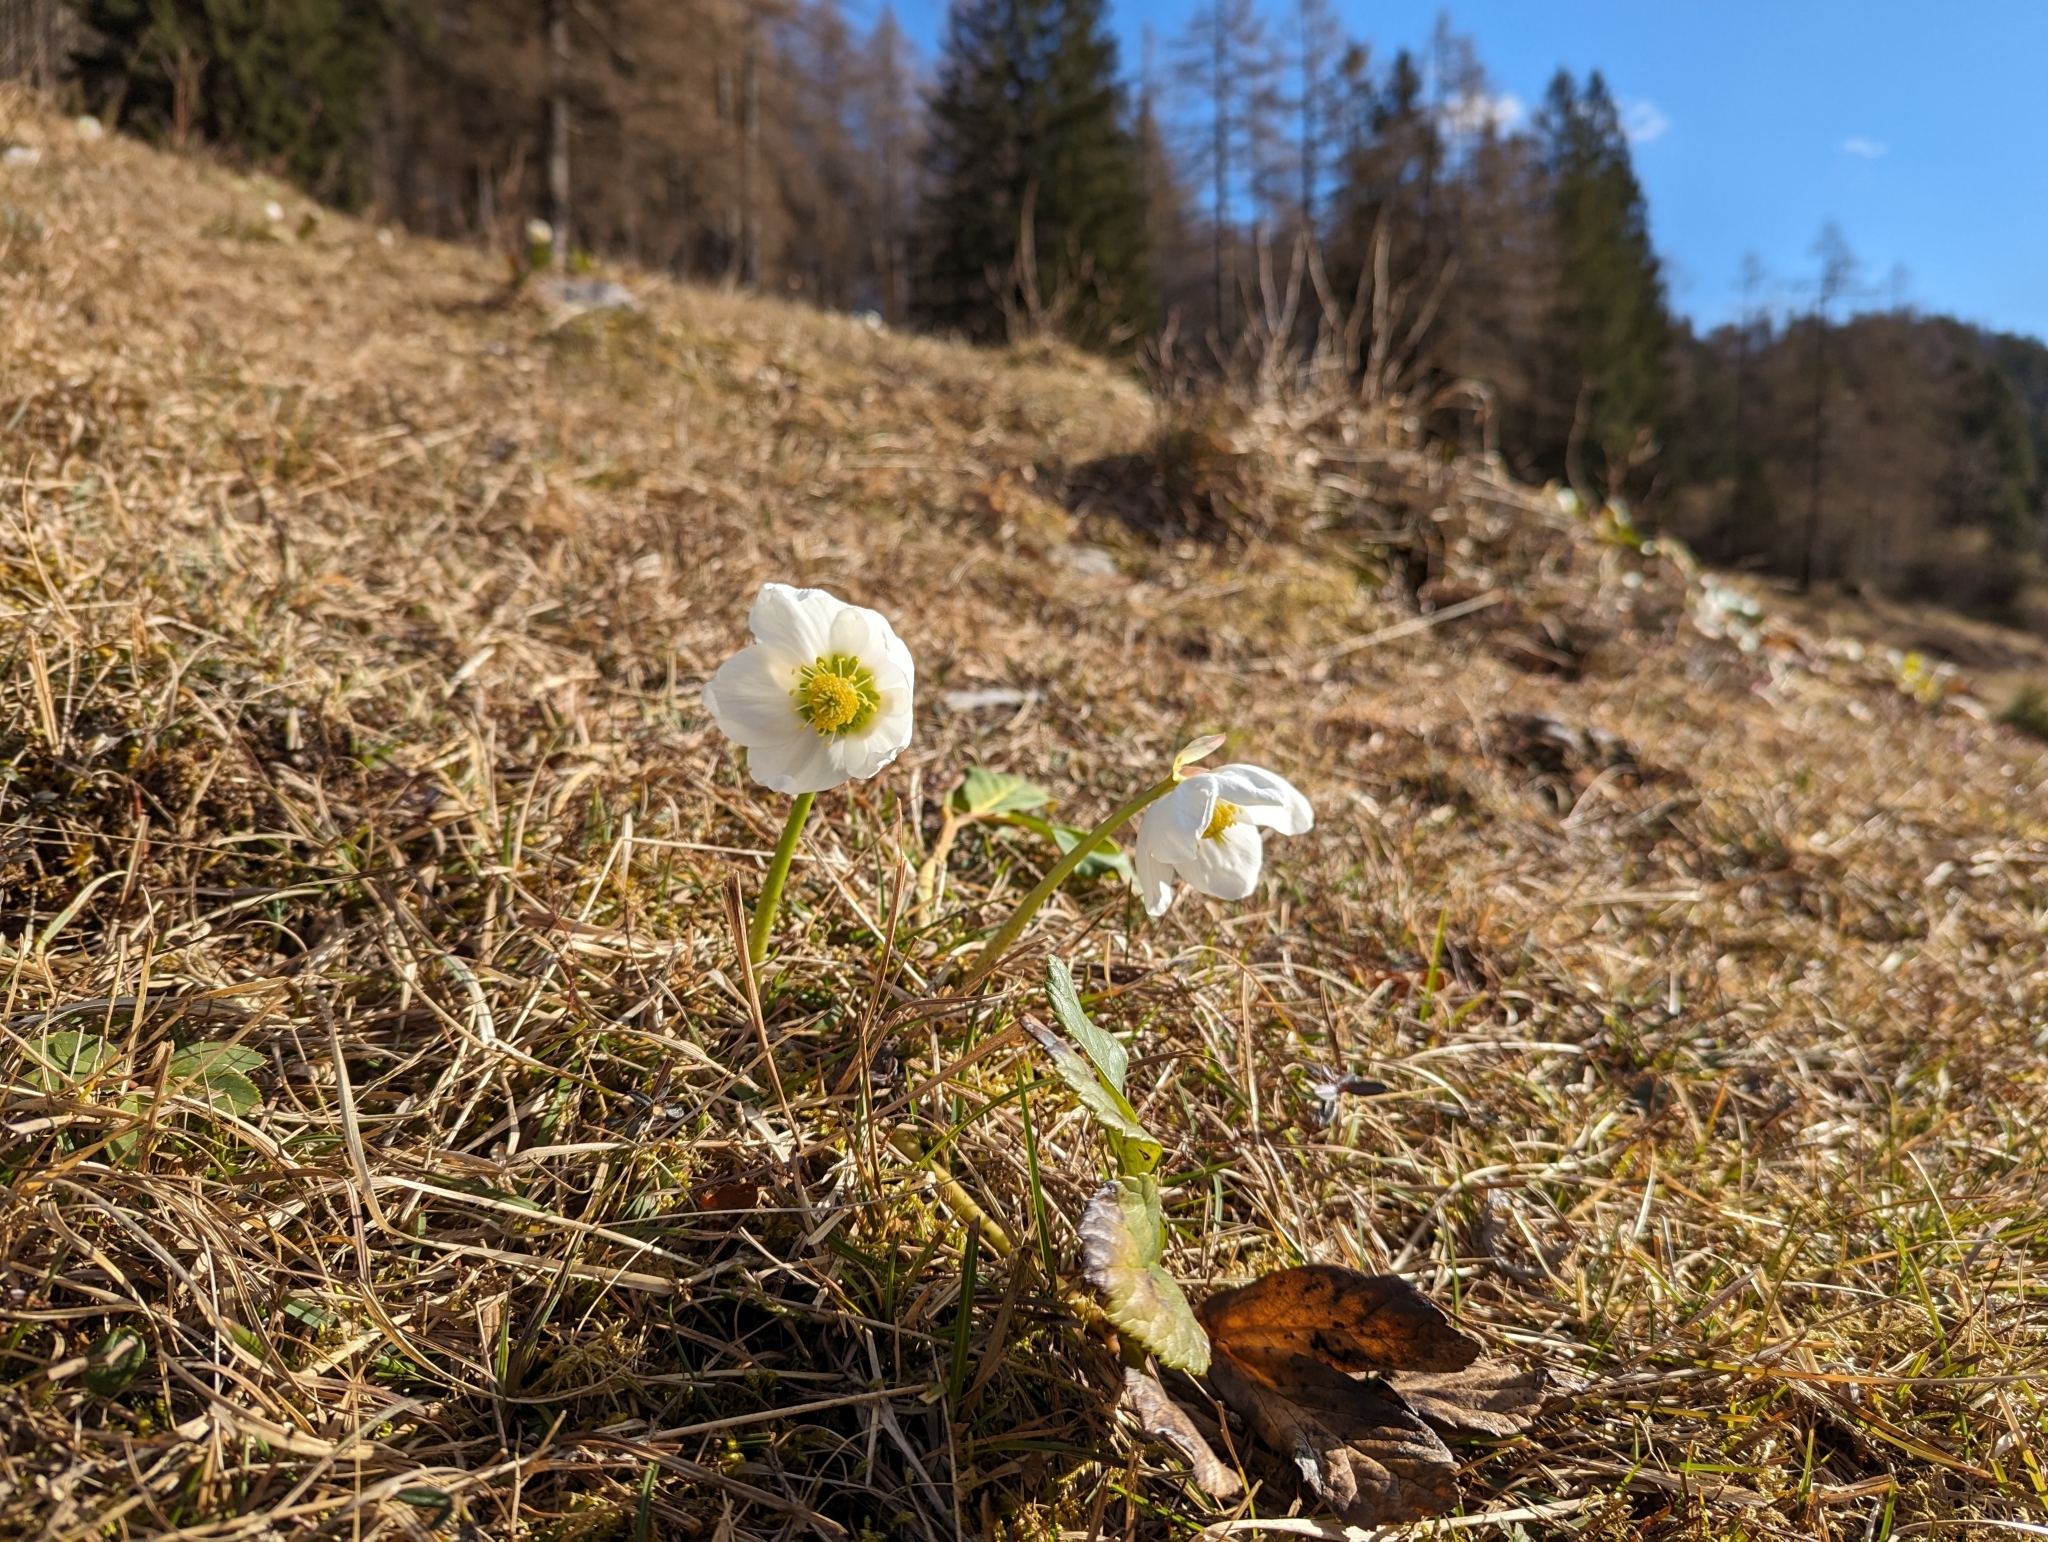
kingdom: Plantae
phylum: Tracheophyta
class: Magnoliopsida
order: Ranunculales
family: Ranunculaceae
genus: Helleborus
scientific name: Helleborus niger
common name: Black hellebore
